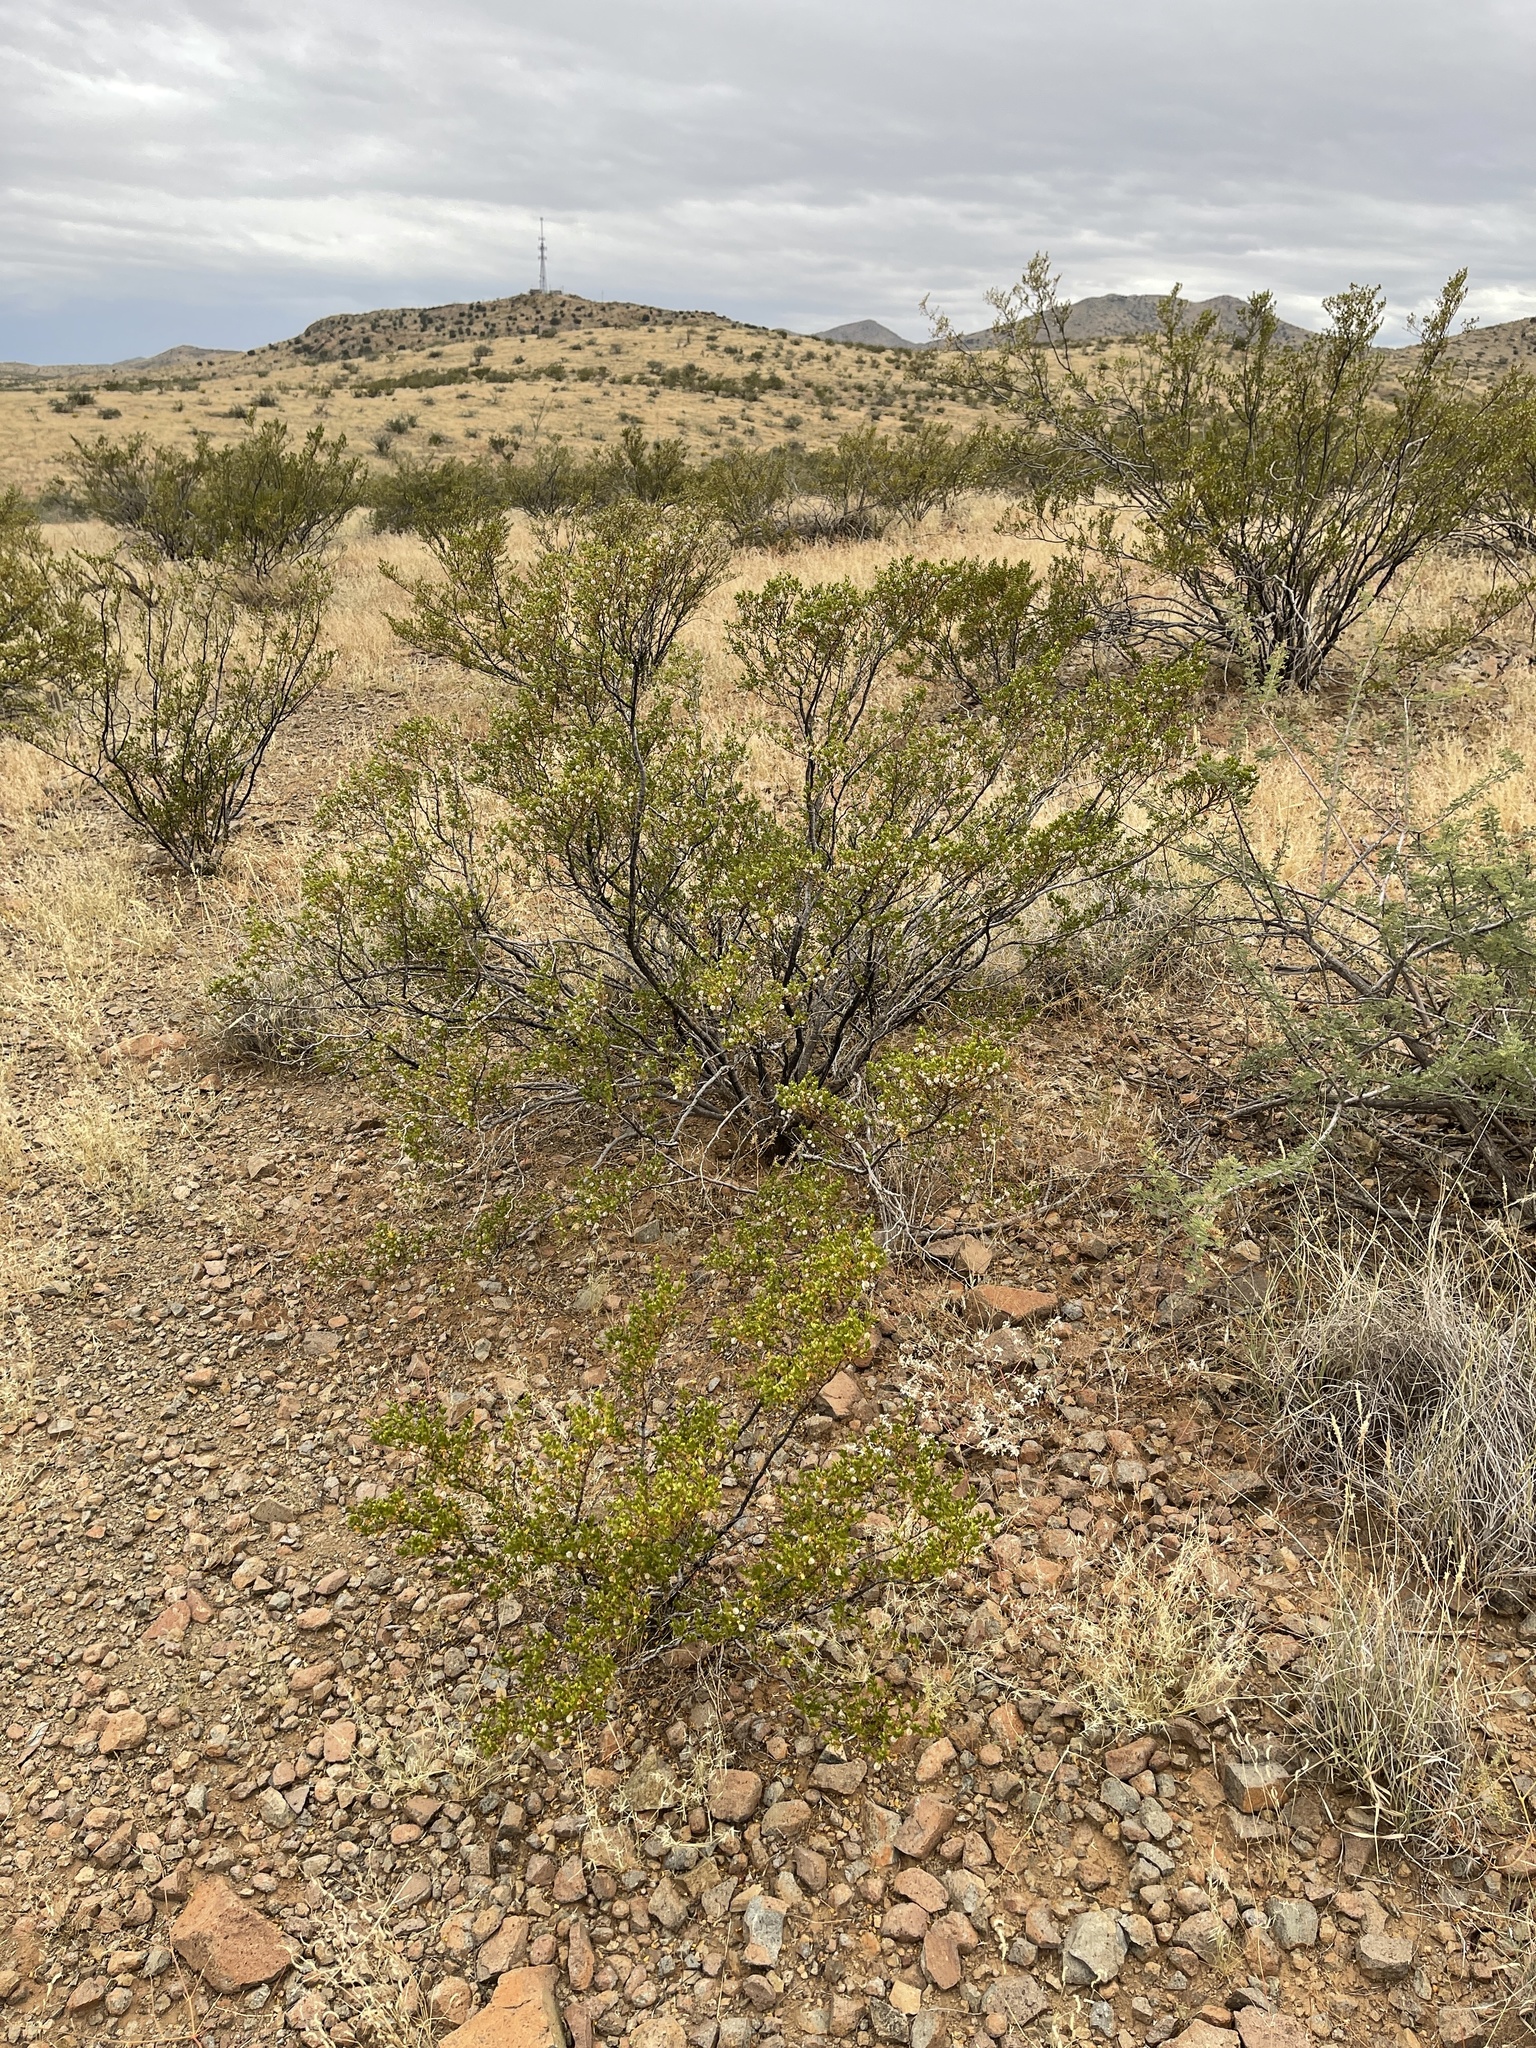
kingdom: Plantae
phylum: Tracheophyta
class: Magnoliopsida
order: Zygophyllales
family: Zygophyllaceae
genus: Larrea
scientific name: Larrea tridentata
